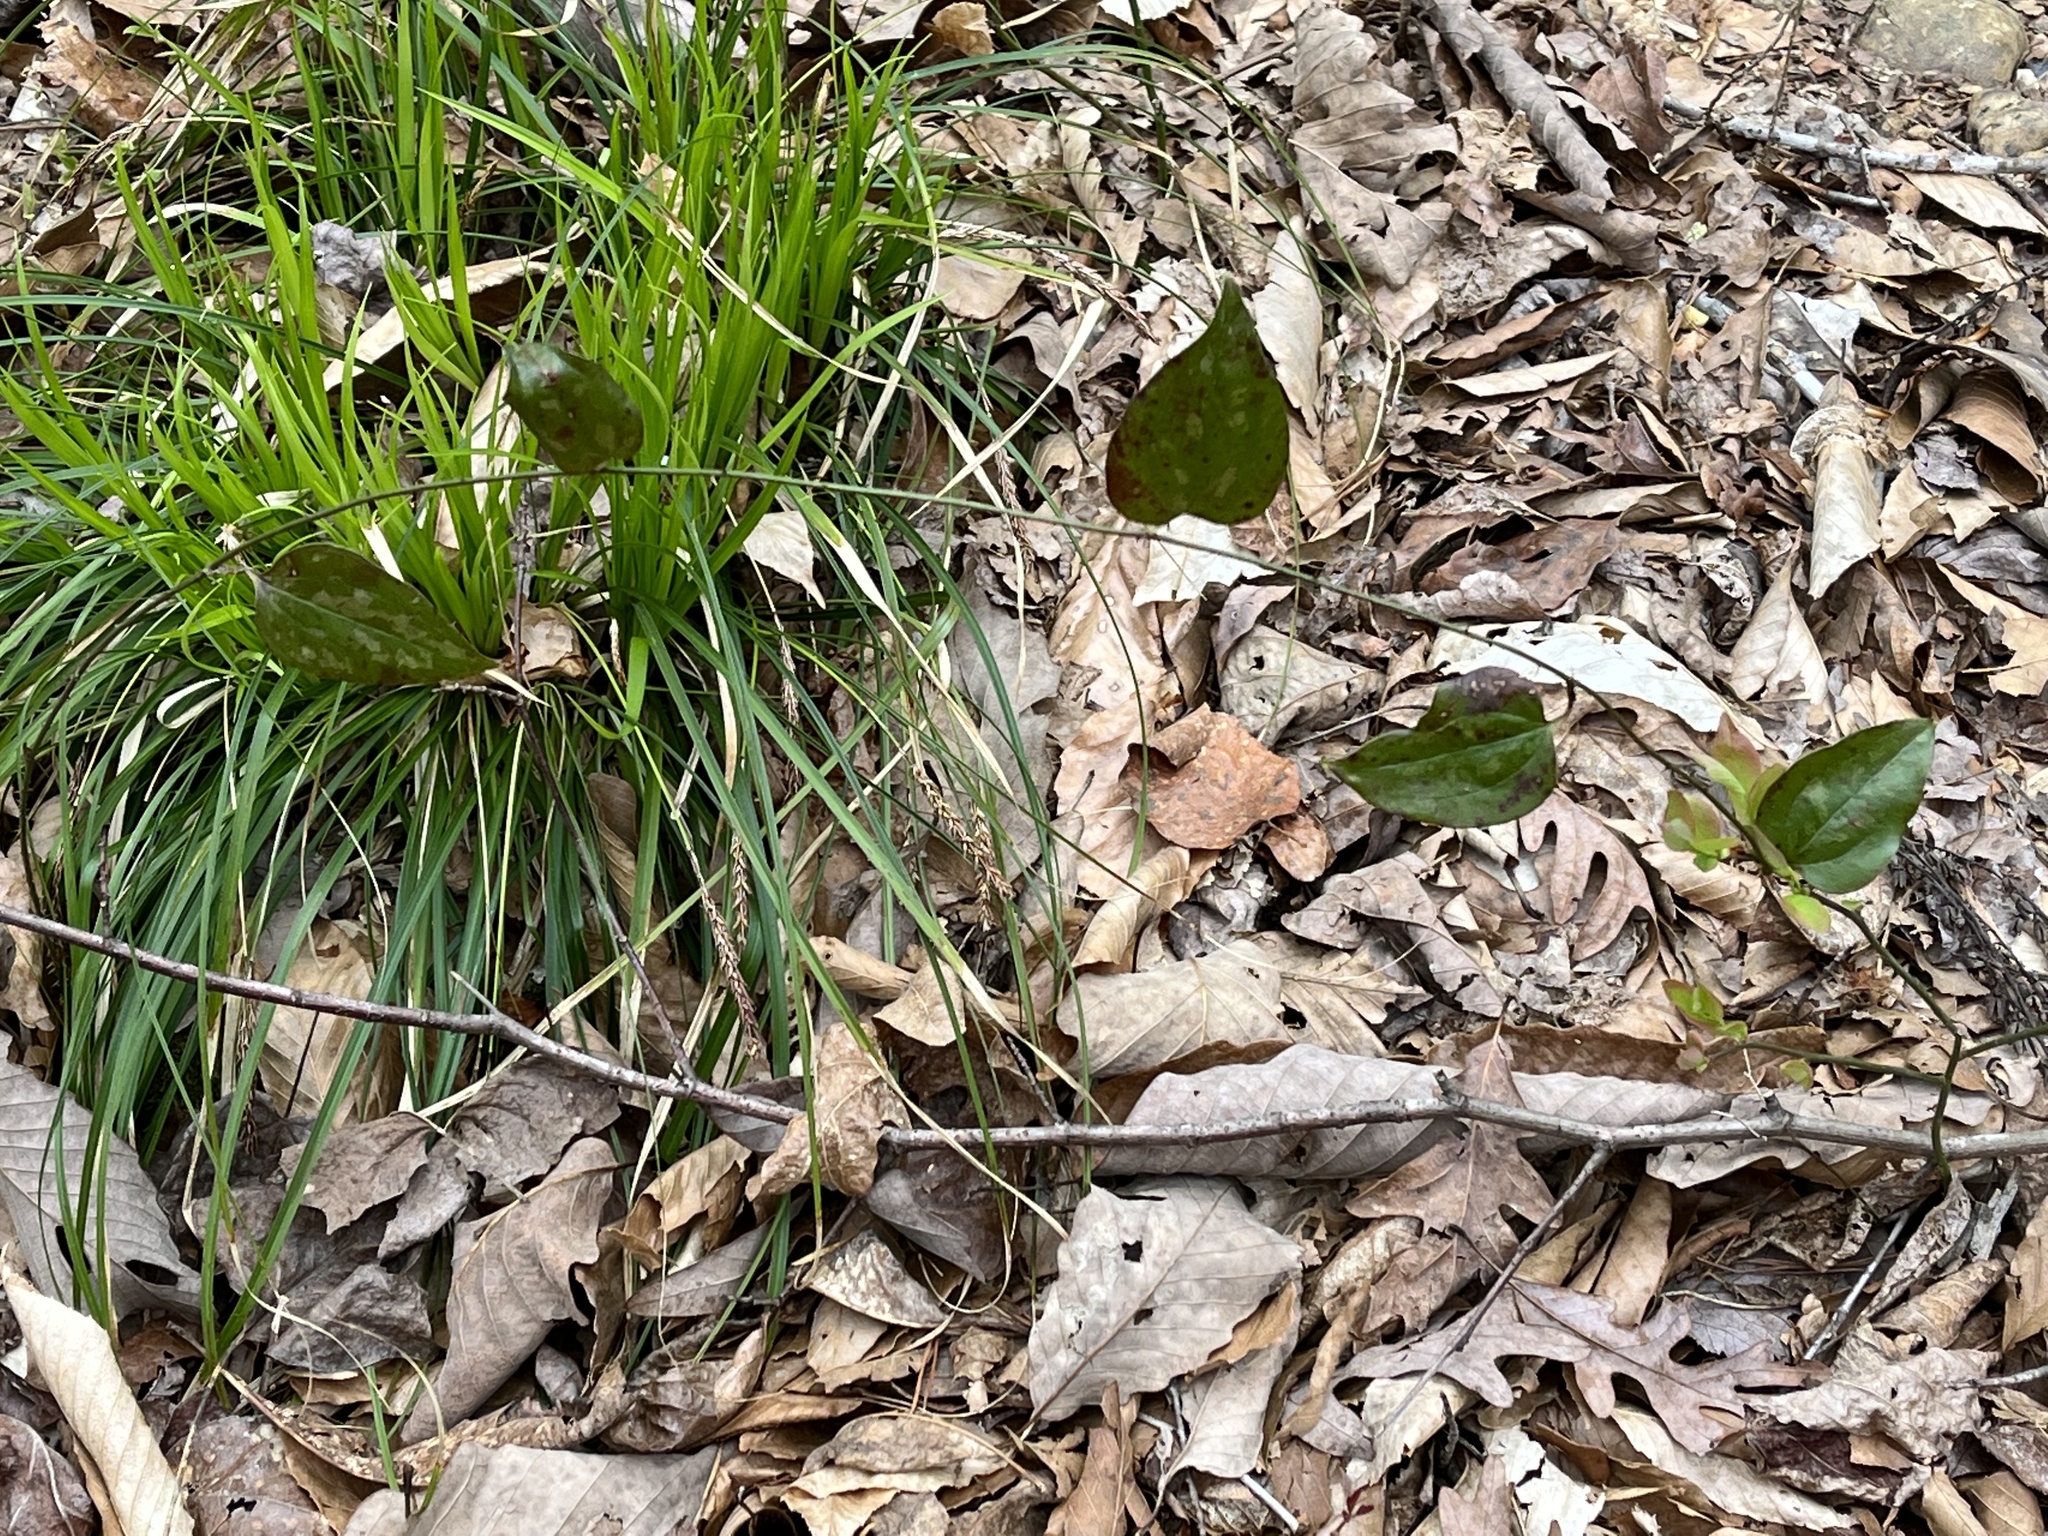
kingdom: Plantae
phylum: Tracheophyta
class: Liliopsida
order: Liliales
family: Smilacaceae
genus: Smilax
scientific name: Smilax glauca
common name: Cat greenbrier
